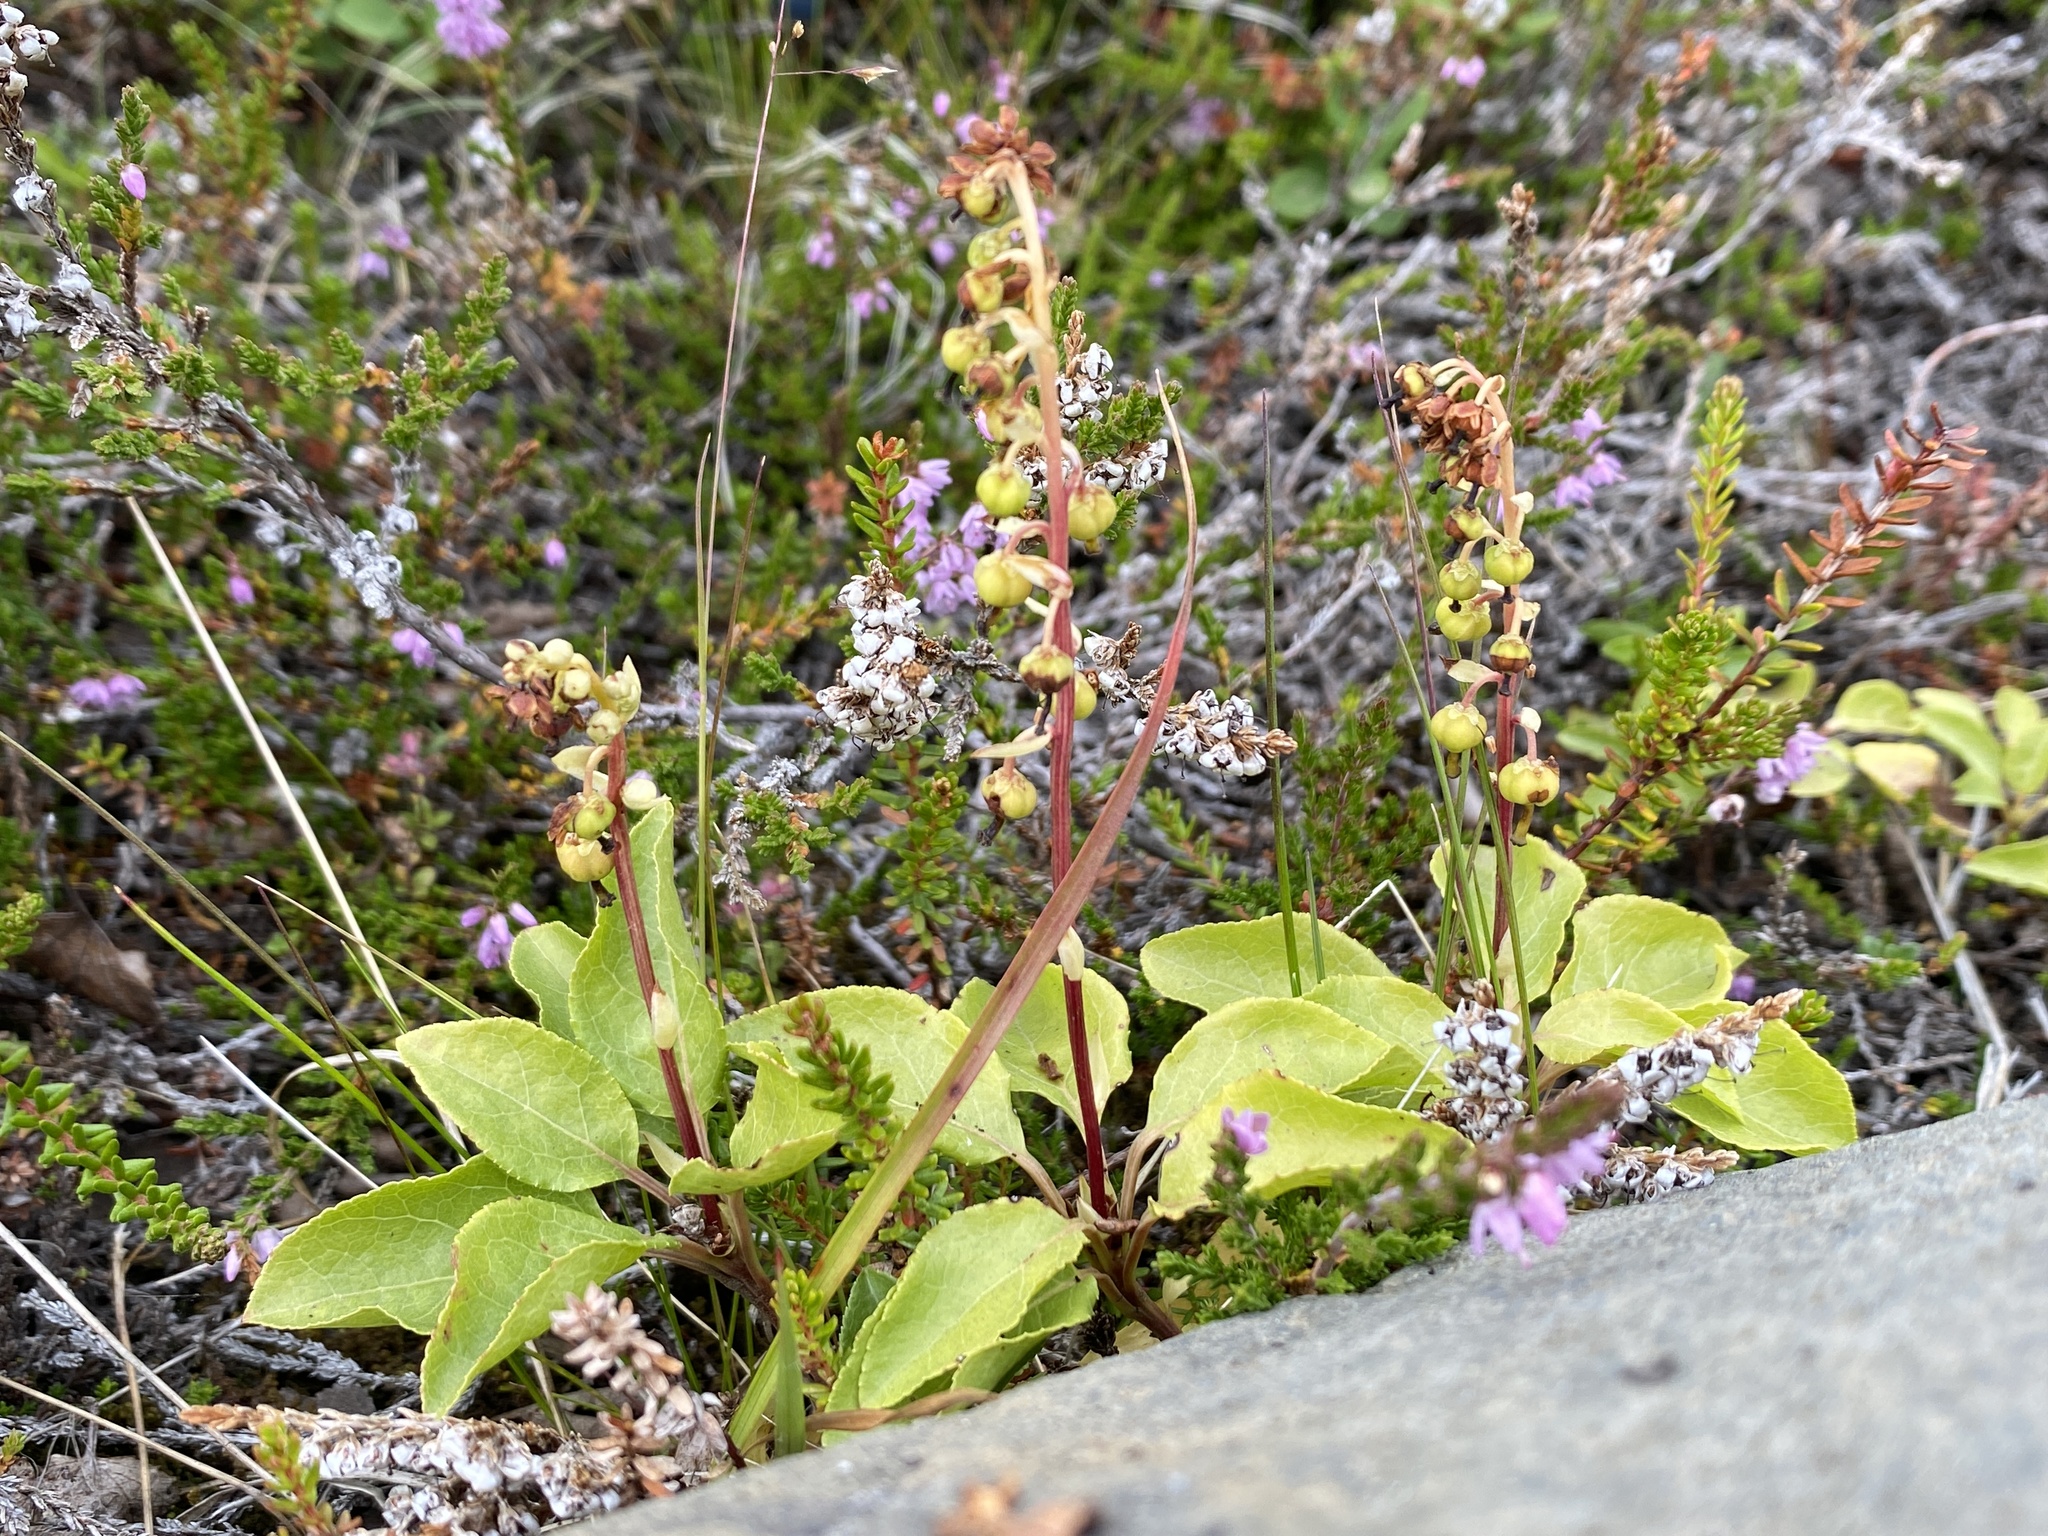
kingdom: Plantae
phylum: Tracheophyta
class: Magnoliopsida
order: Ericales
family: Ericaceae
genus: Orthilia
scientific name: Orthilia secunda
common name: One-sided orthilia
